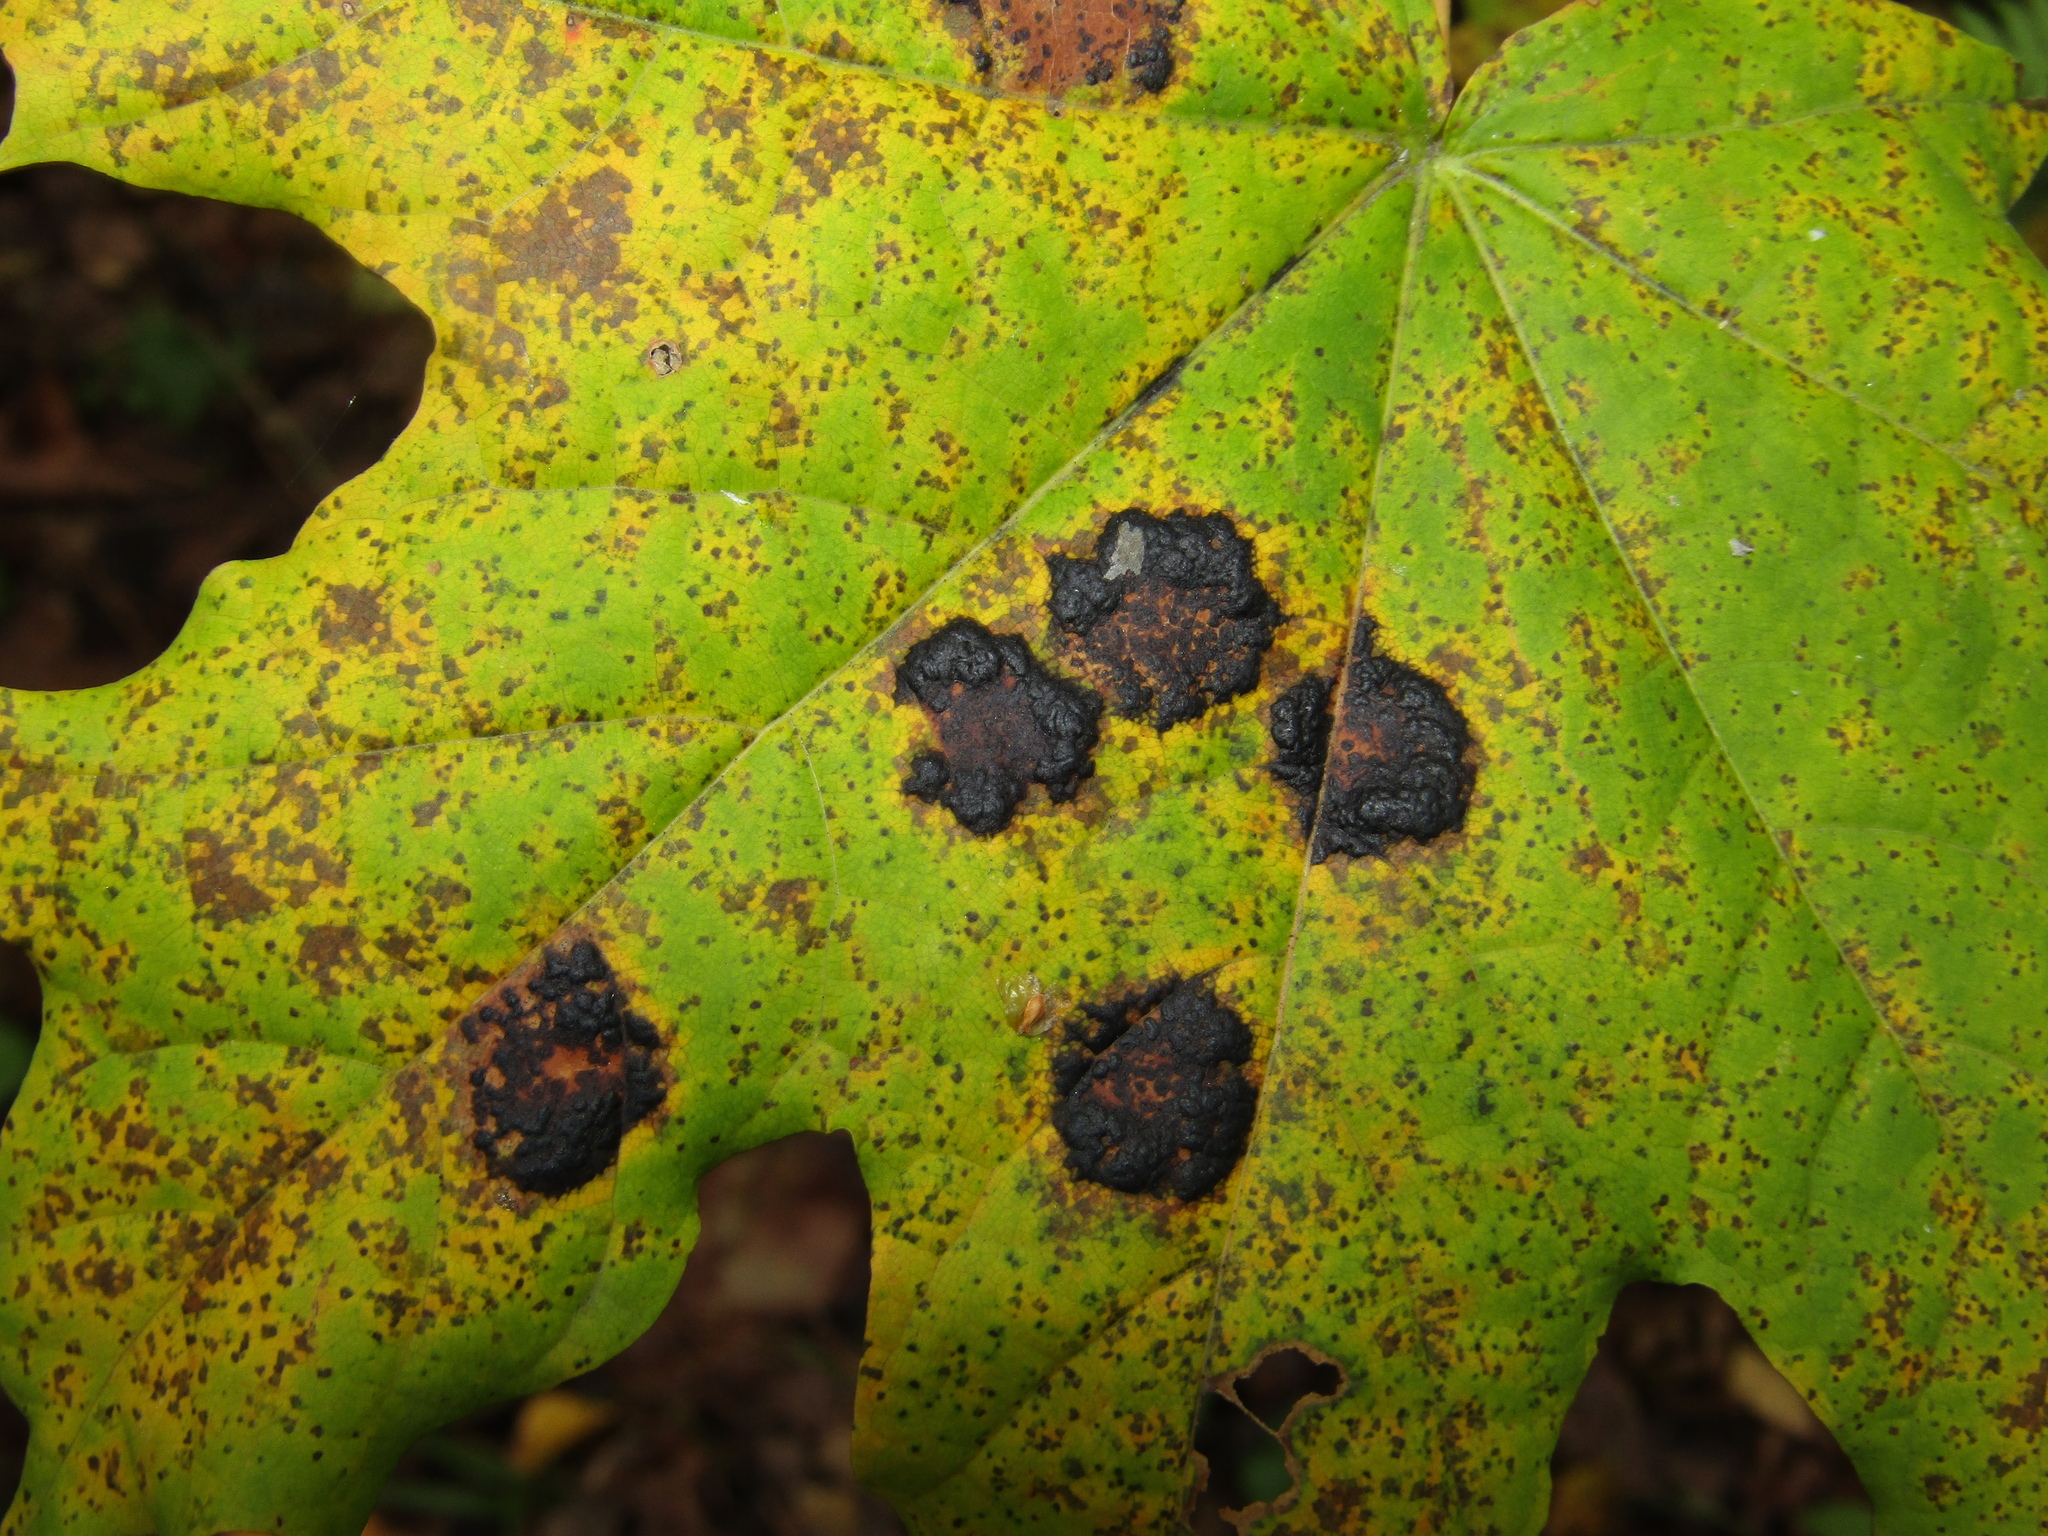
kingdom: Fungi
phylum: Ascomycota
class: Leotiomycetes
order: Rhytismatales
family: Rhytismataceae
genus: Rhytisma
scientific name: Rhytisma acerinum
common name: European tar spot
